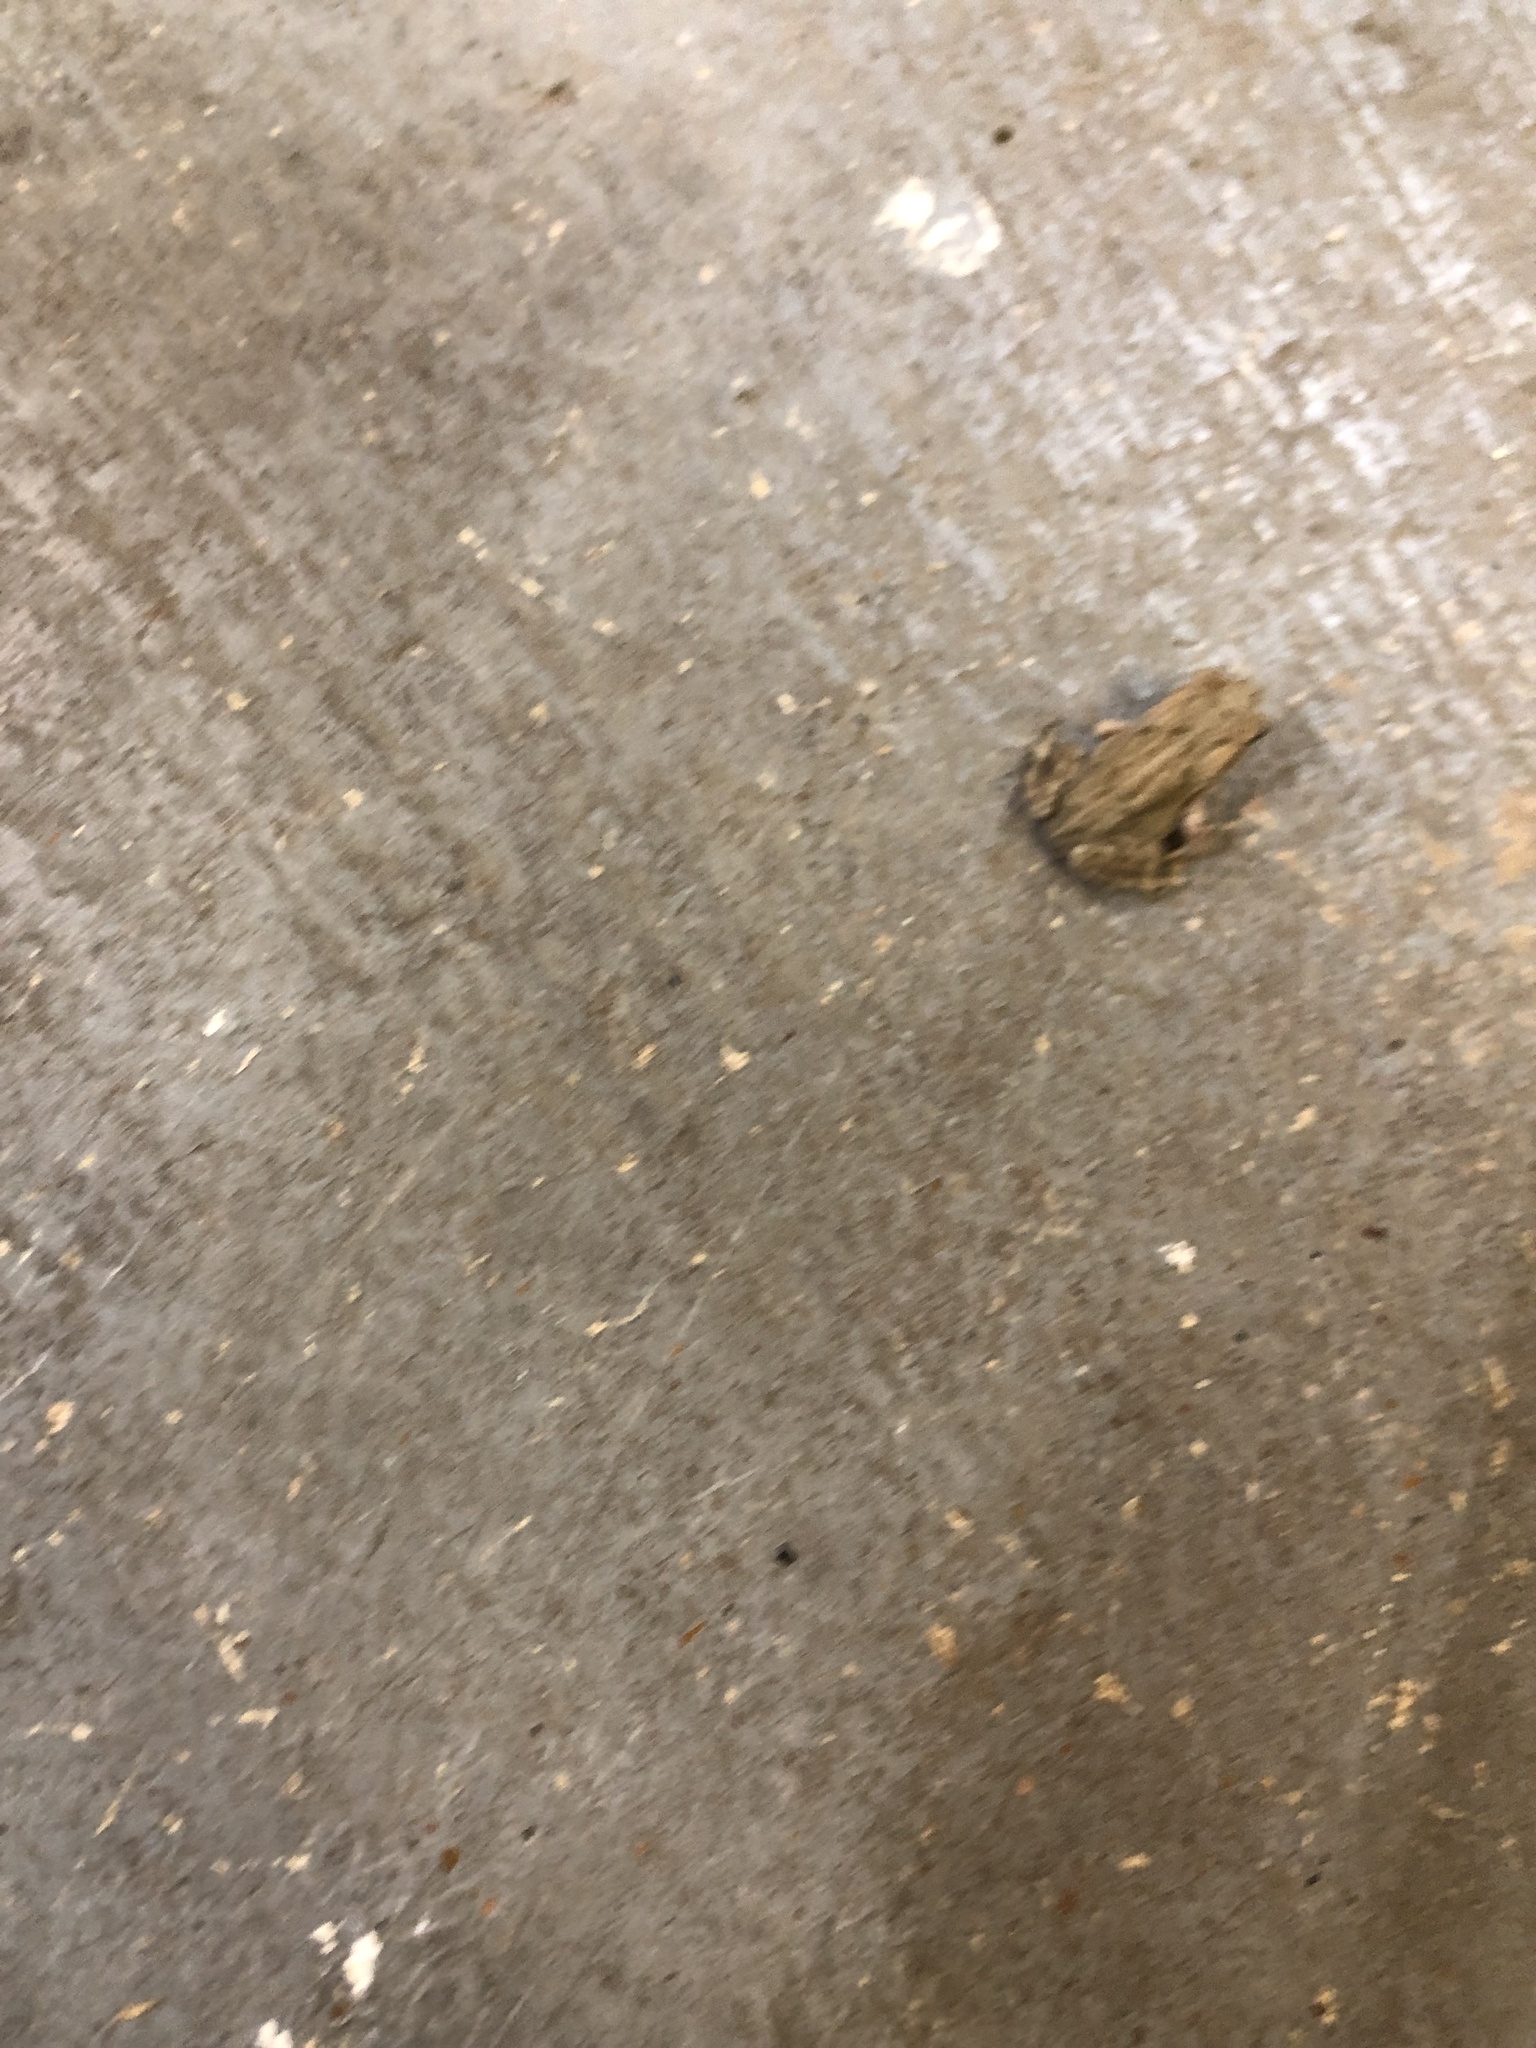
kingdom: Animalia
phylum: Chordata
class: Amphibia
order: Anura
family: Bufonidae
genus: Incilius
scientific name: Incilius nebulifer
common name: Gulf coast toad
